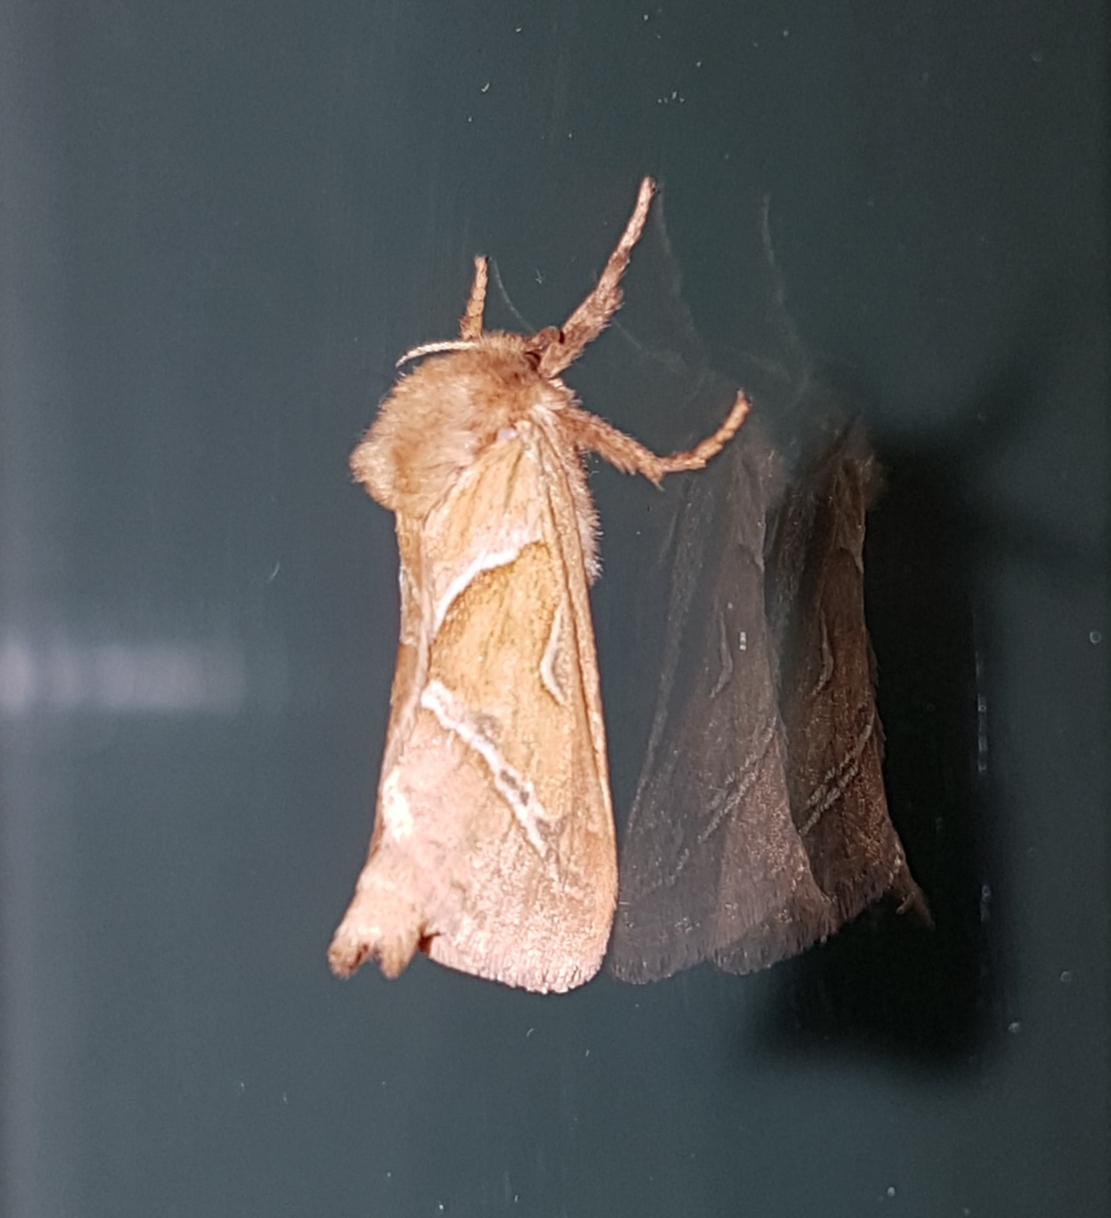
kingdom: Animalia
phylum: Arthropoda
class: Insecta
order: Lepidoptera
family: Hepialidae
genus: Triodia
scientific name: Triodia sylvina
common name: Orange swift
